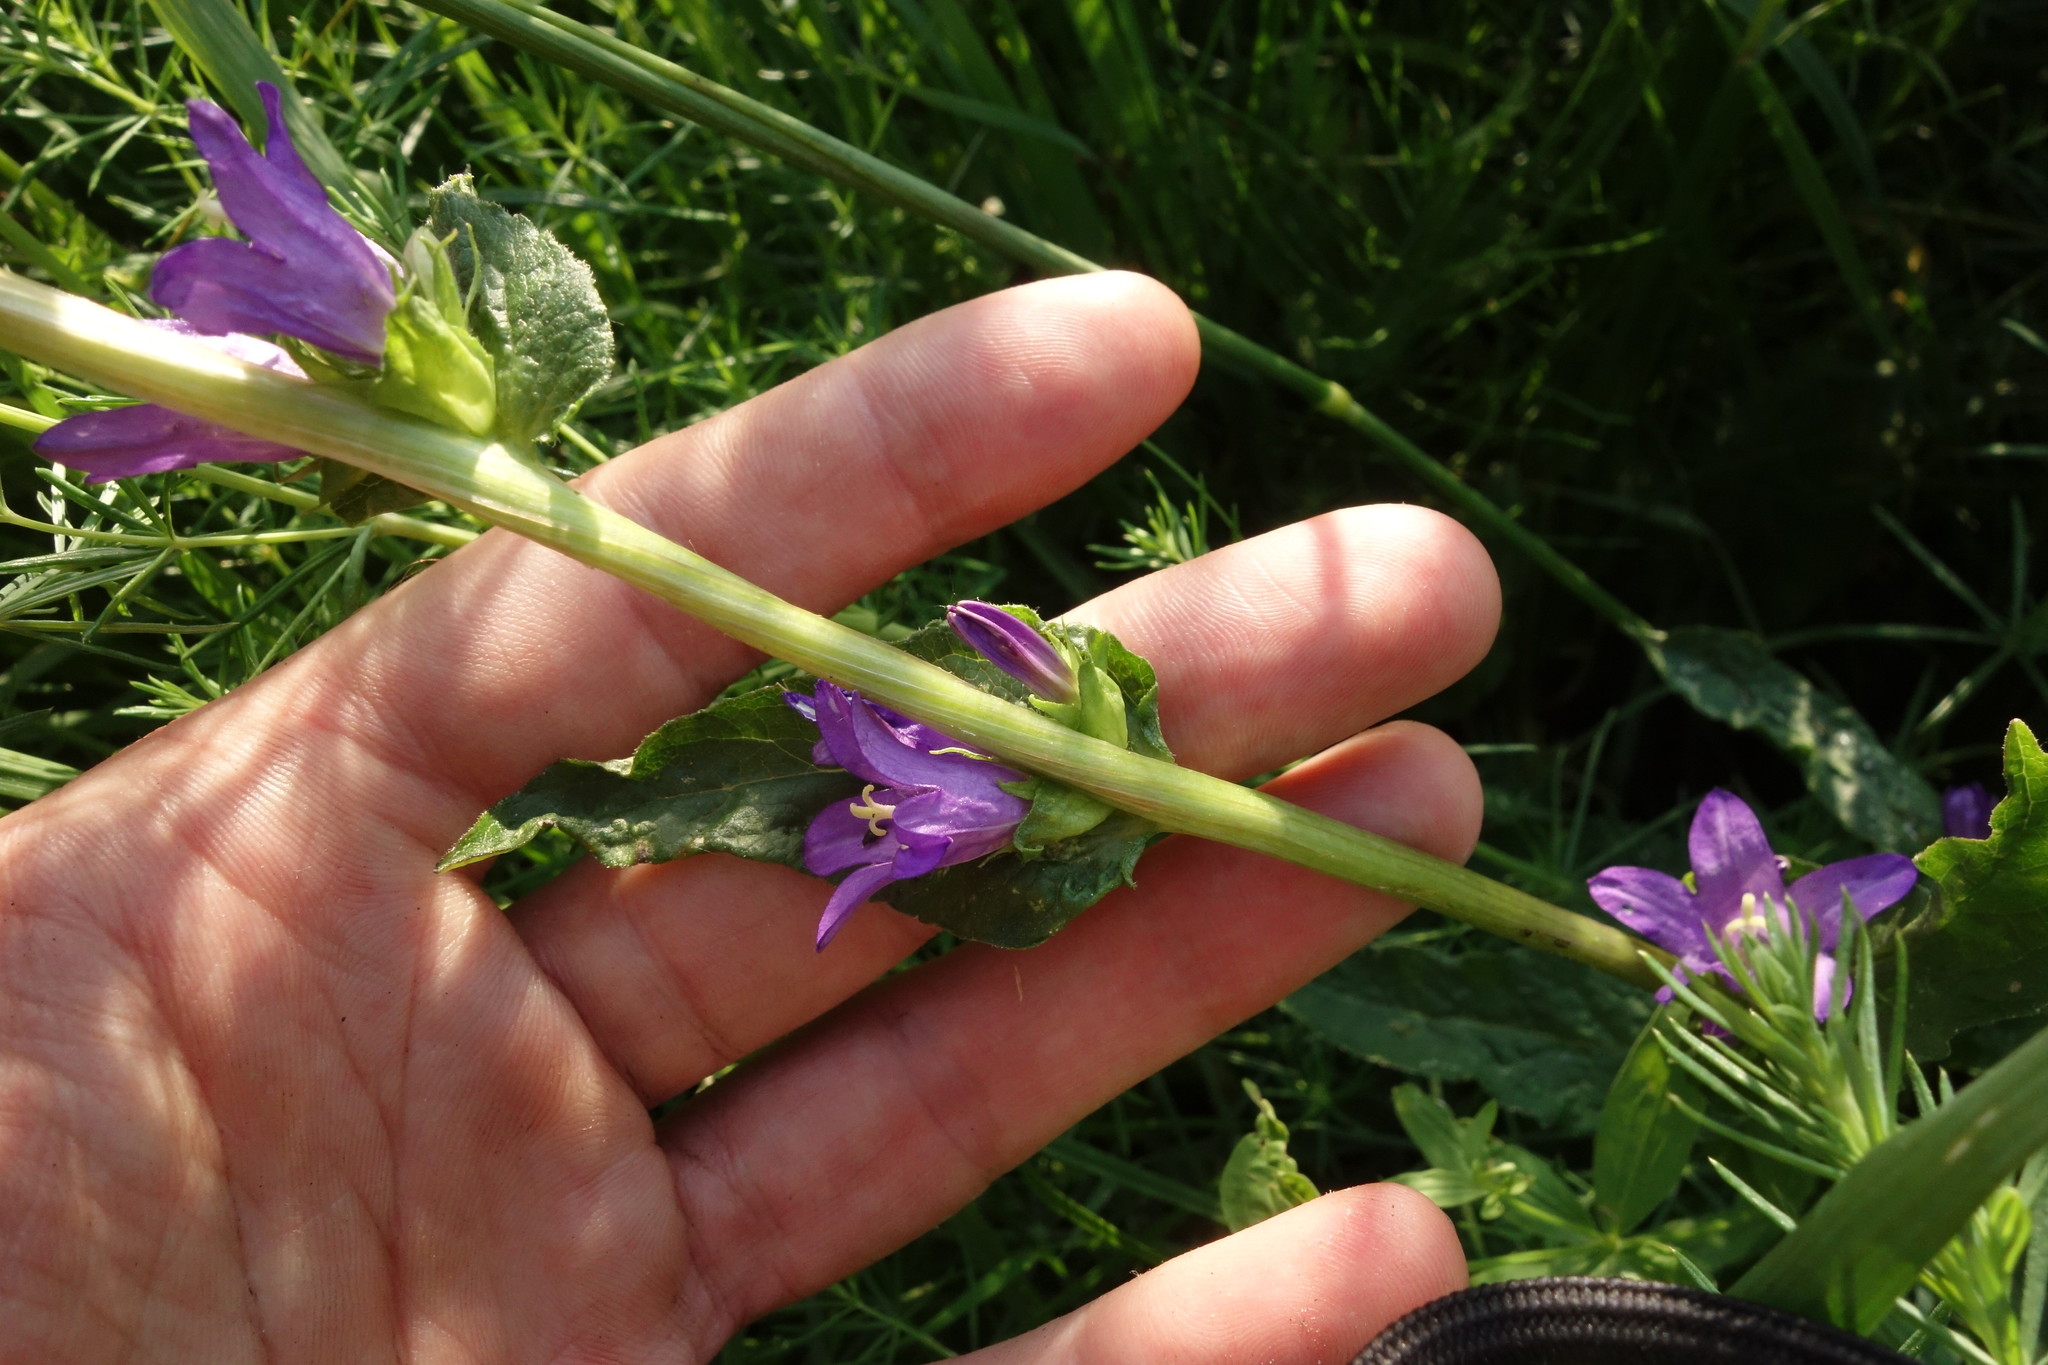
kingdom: Plantae
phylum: Tracheophyta
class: Magnoliopsida
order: Asterales
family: Campanulaceae
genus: Campanula
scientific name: Campanula glomerata
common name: Clustered bellflower
